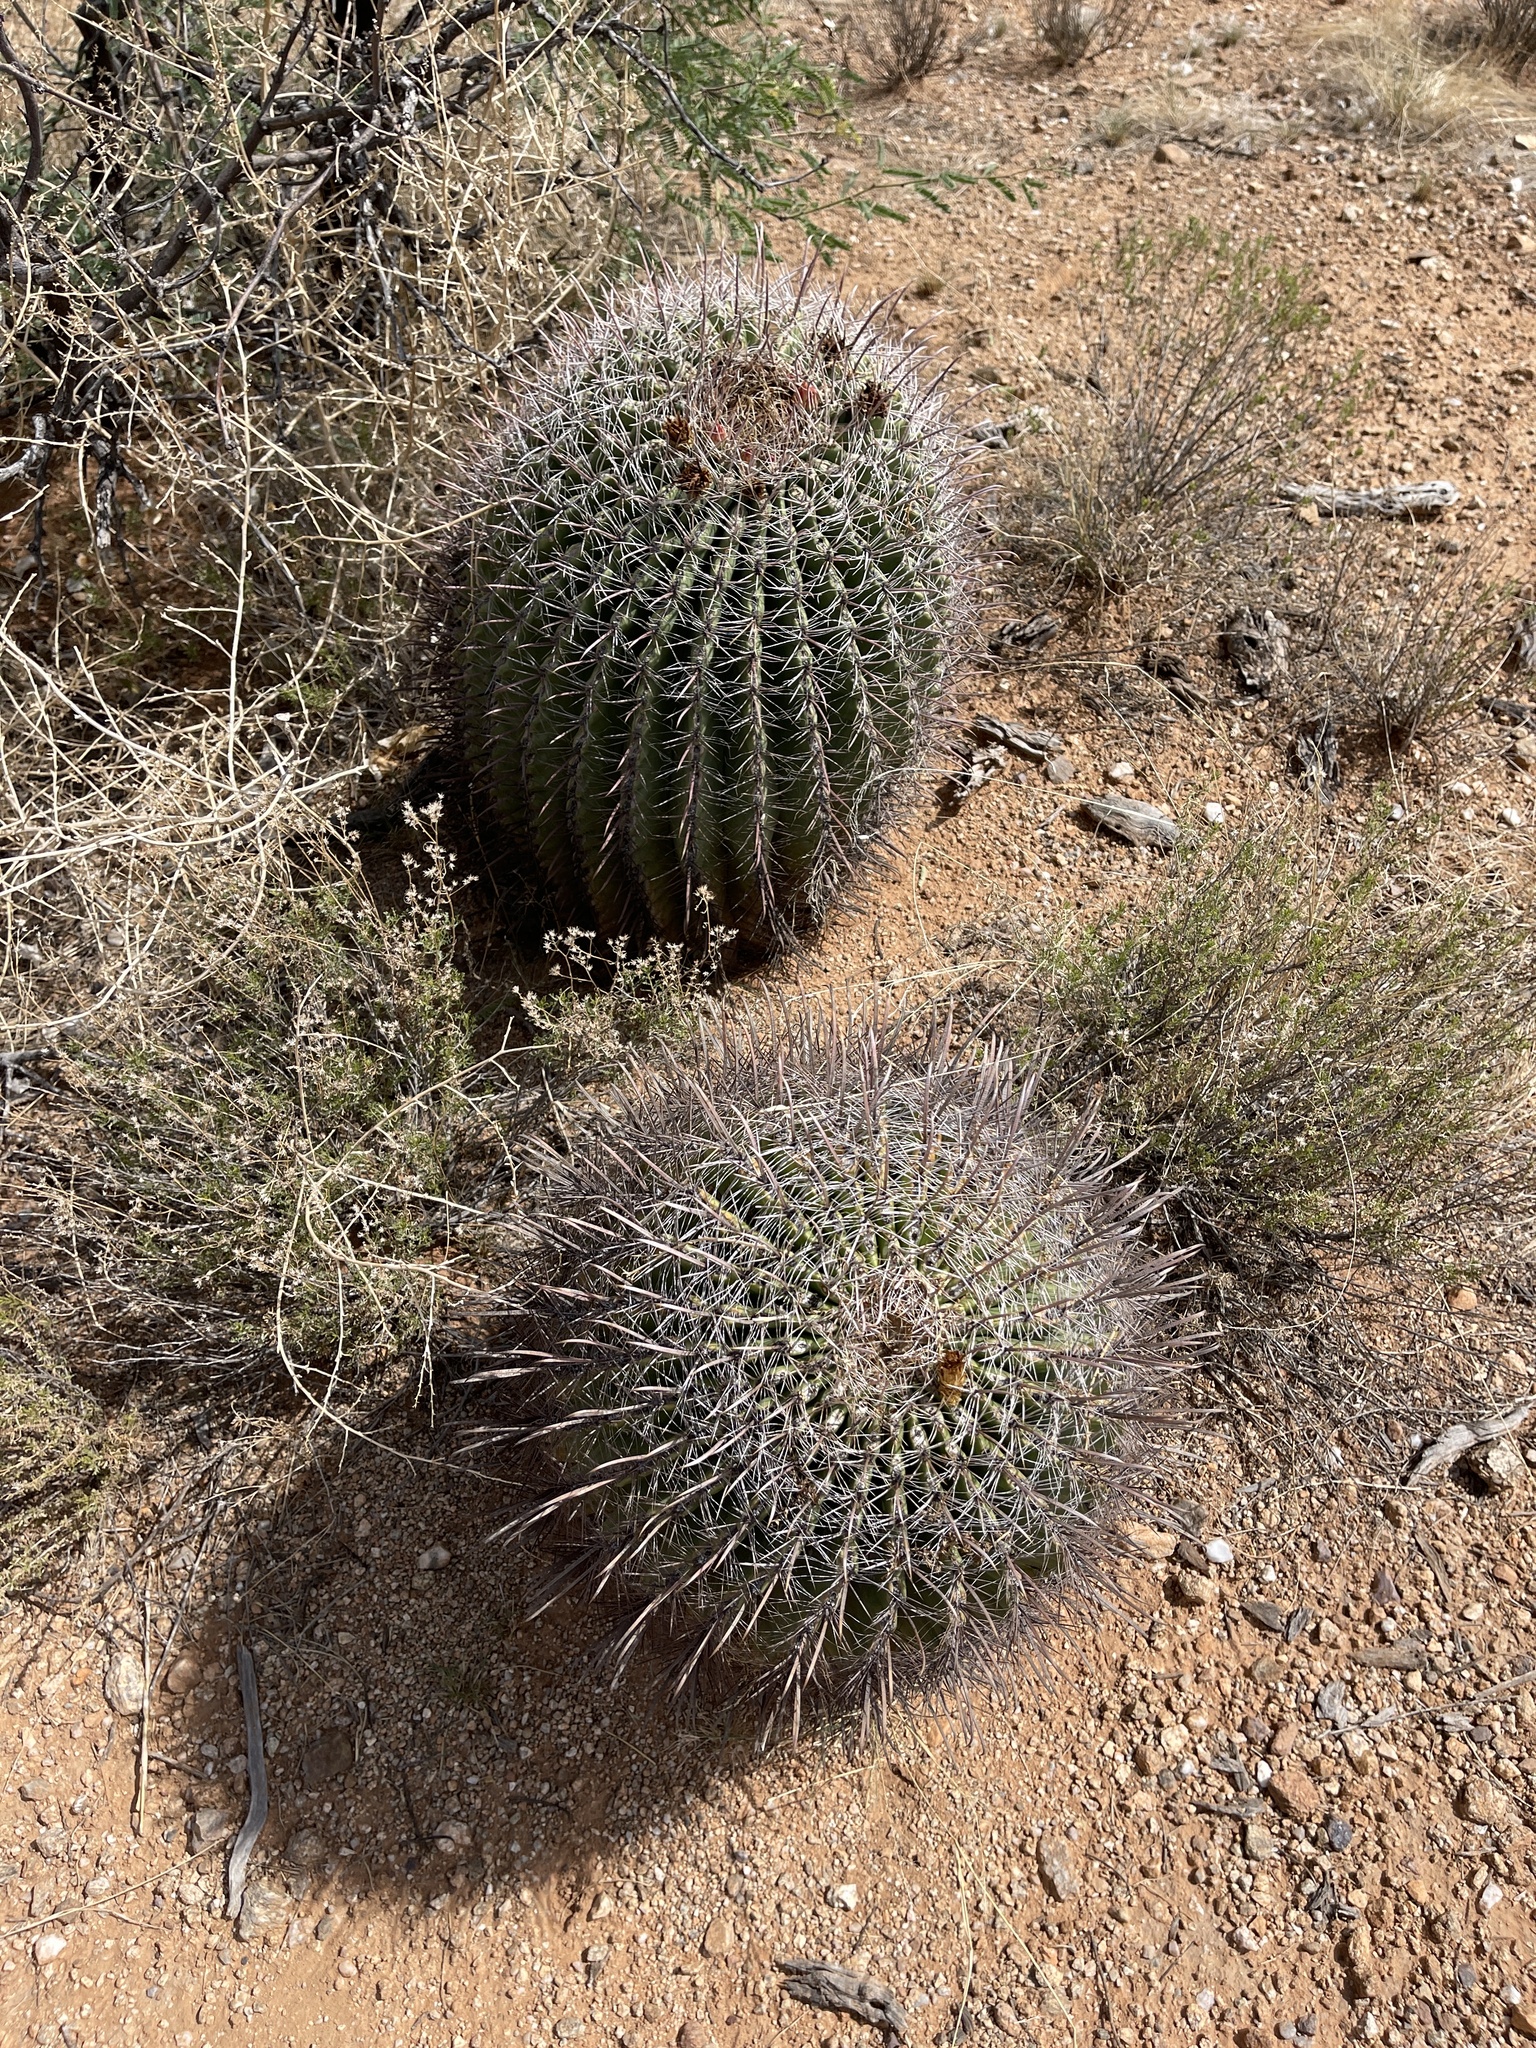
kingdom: Plantae
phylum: Tracheophyta
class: Magnoliopsida
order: Caryophyllales
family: Cactaceae
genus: Ferocactus
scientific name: Ferocactus wislizeni
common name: Candy barrel cactus
